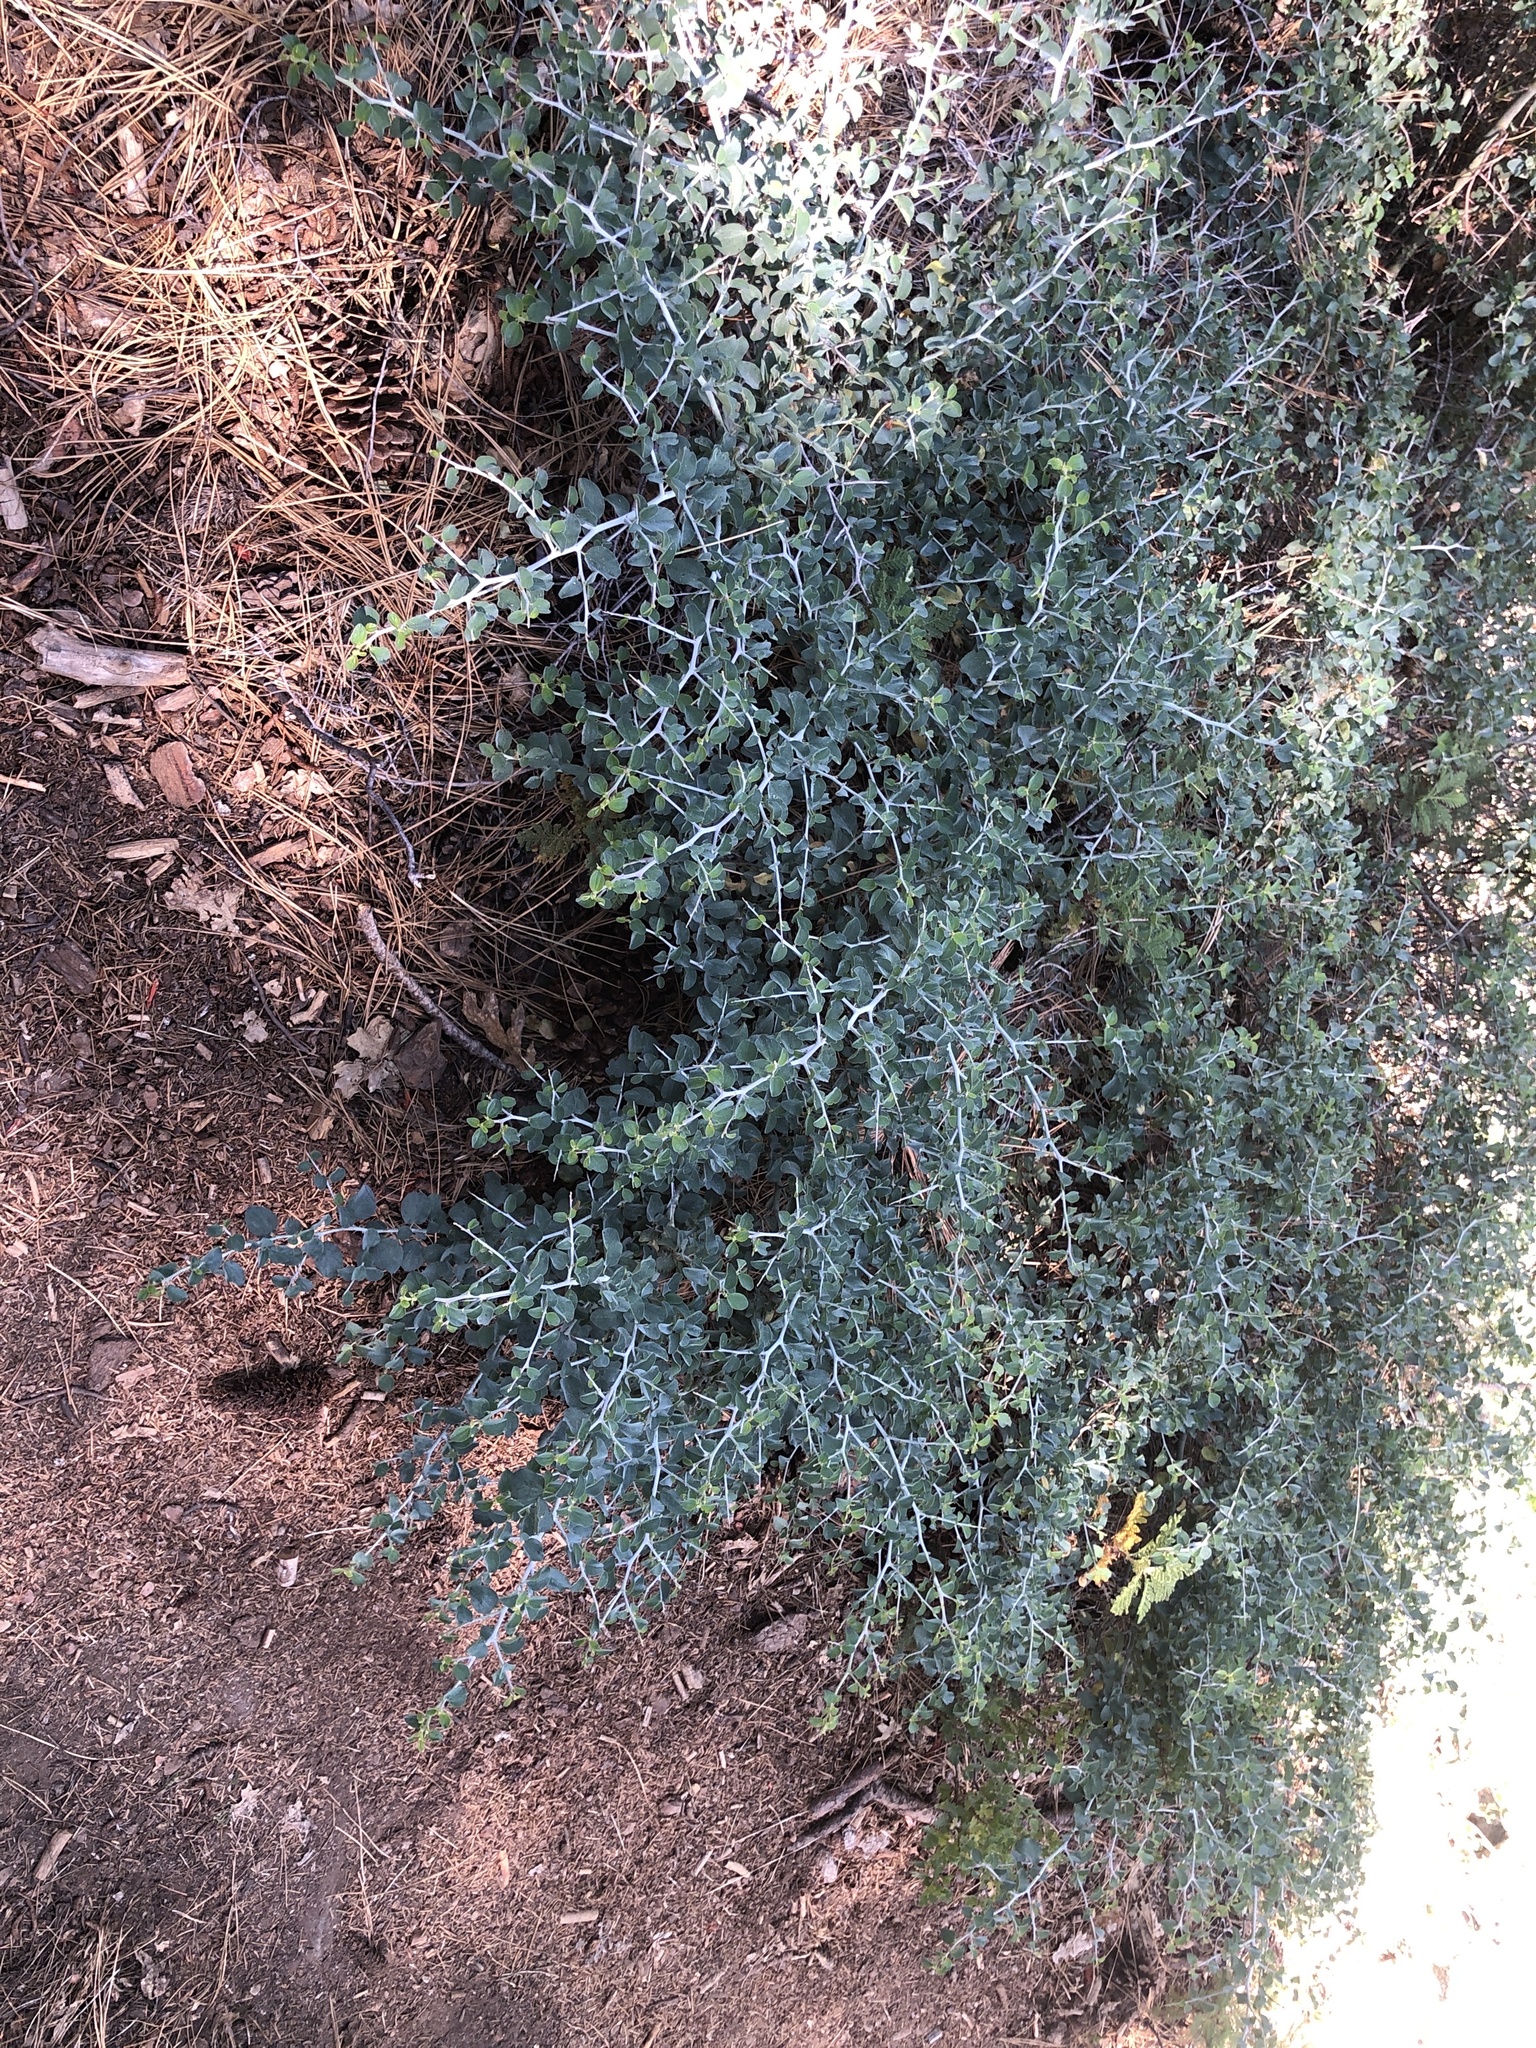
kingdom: Plantae
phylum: Tracheophyta
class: Magnoliopsida
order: Rosales
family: Rhamnaceae
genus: Ceanothus
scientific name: Ceanothus cordulatus
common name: Mountain whitethorn
